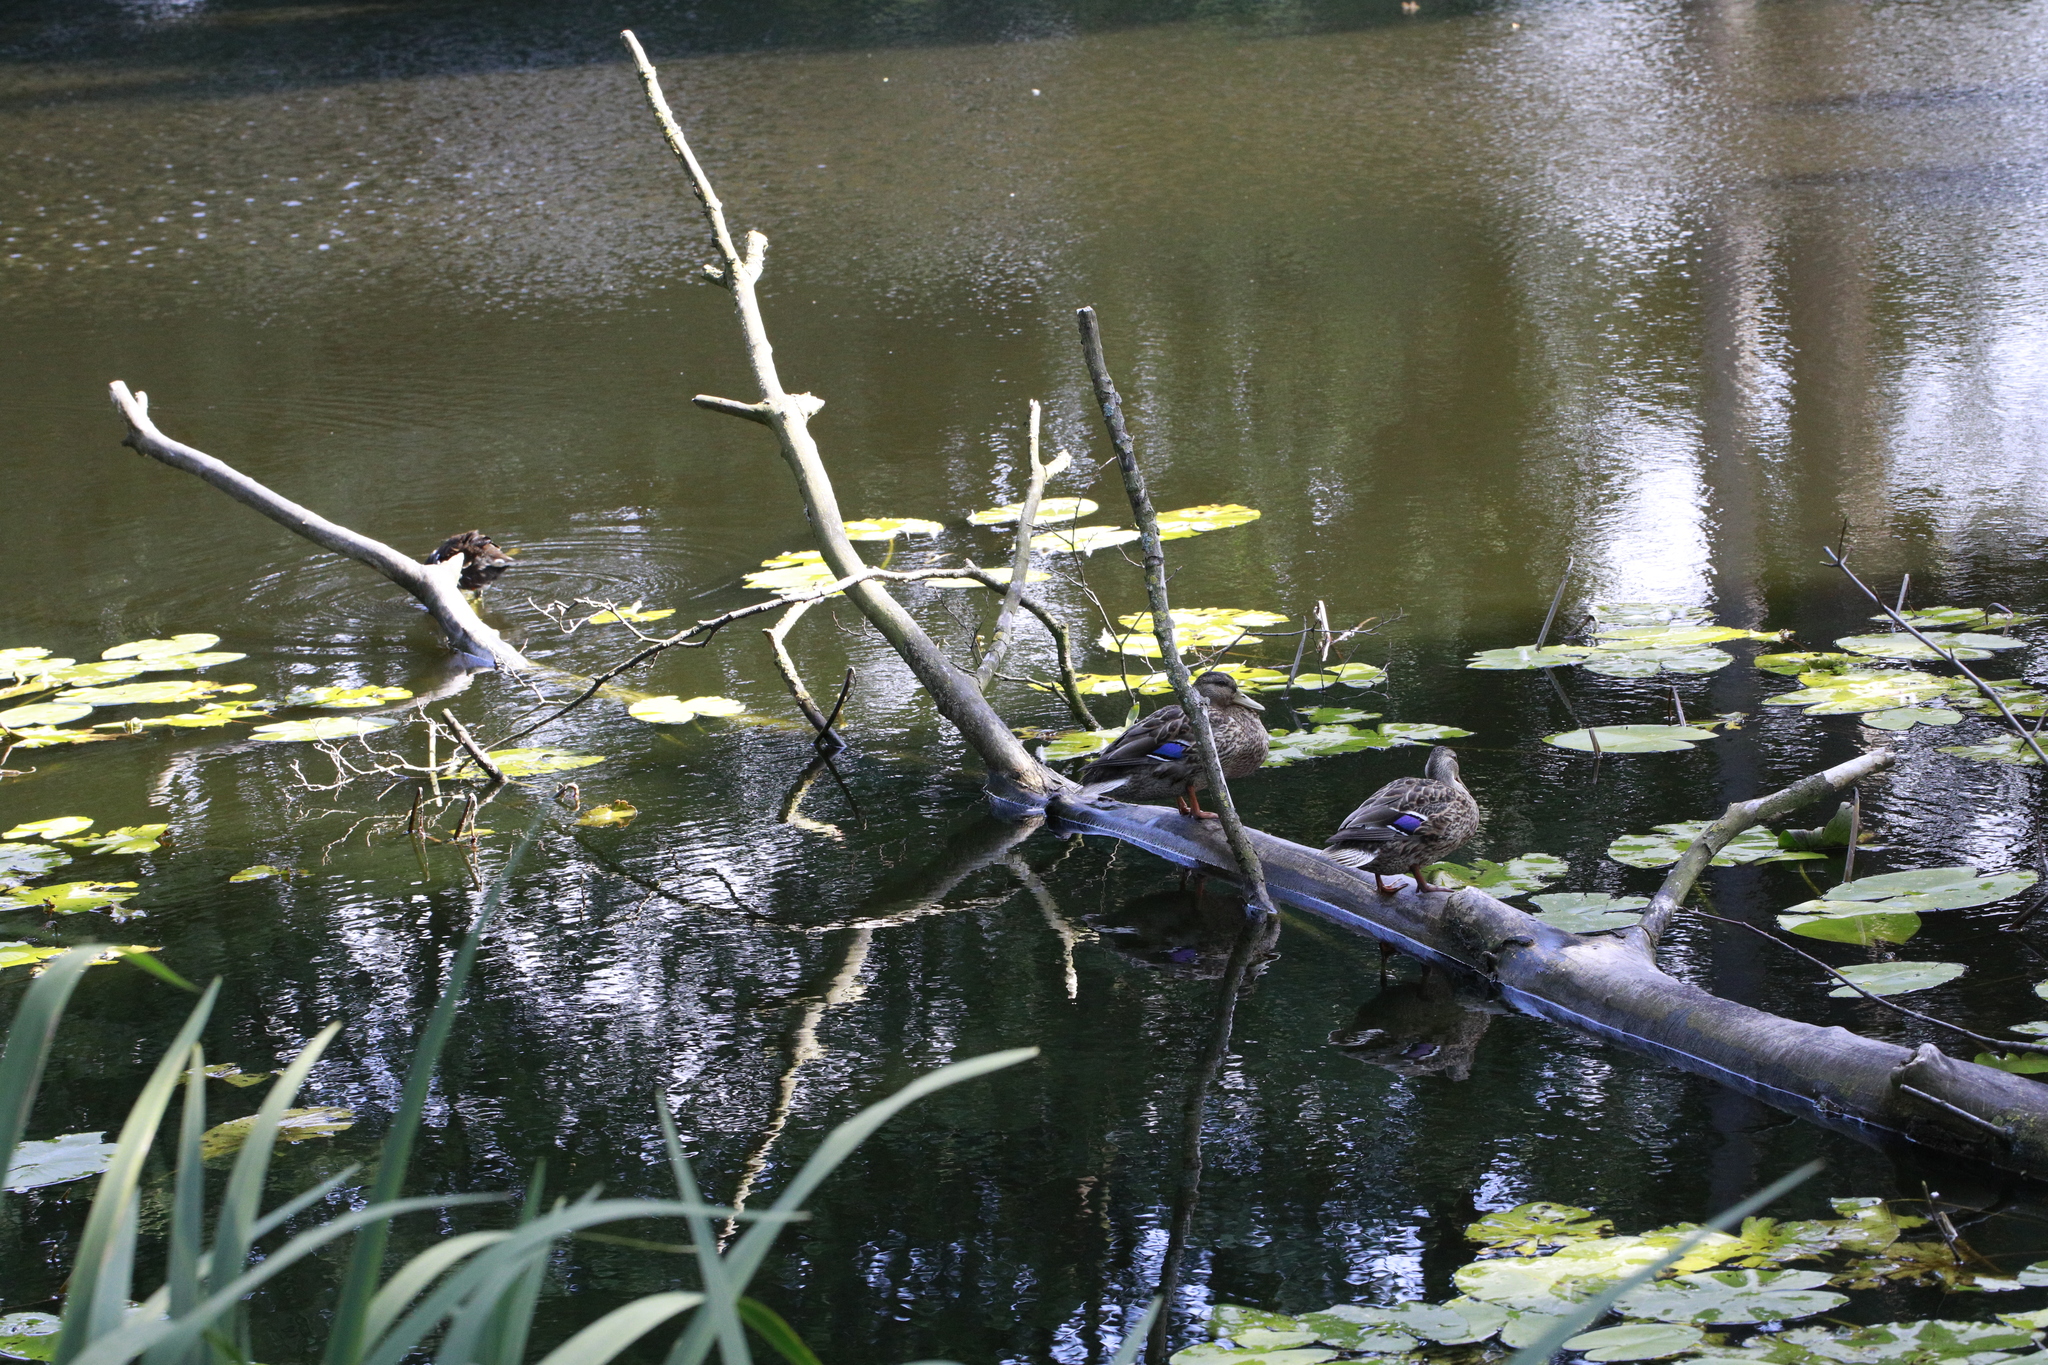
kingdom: Animalia
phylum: Chordata
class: Aves
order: Anseriformes
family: Anatidae
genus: Anas
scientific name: Anas platyrhynchos
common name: Mallard
